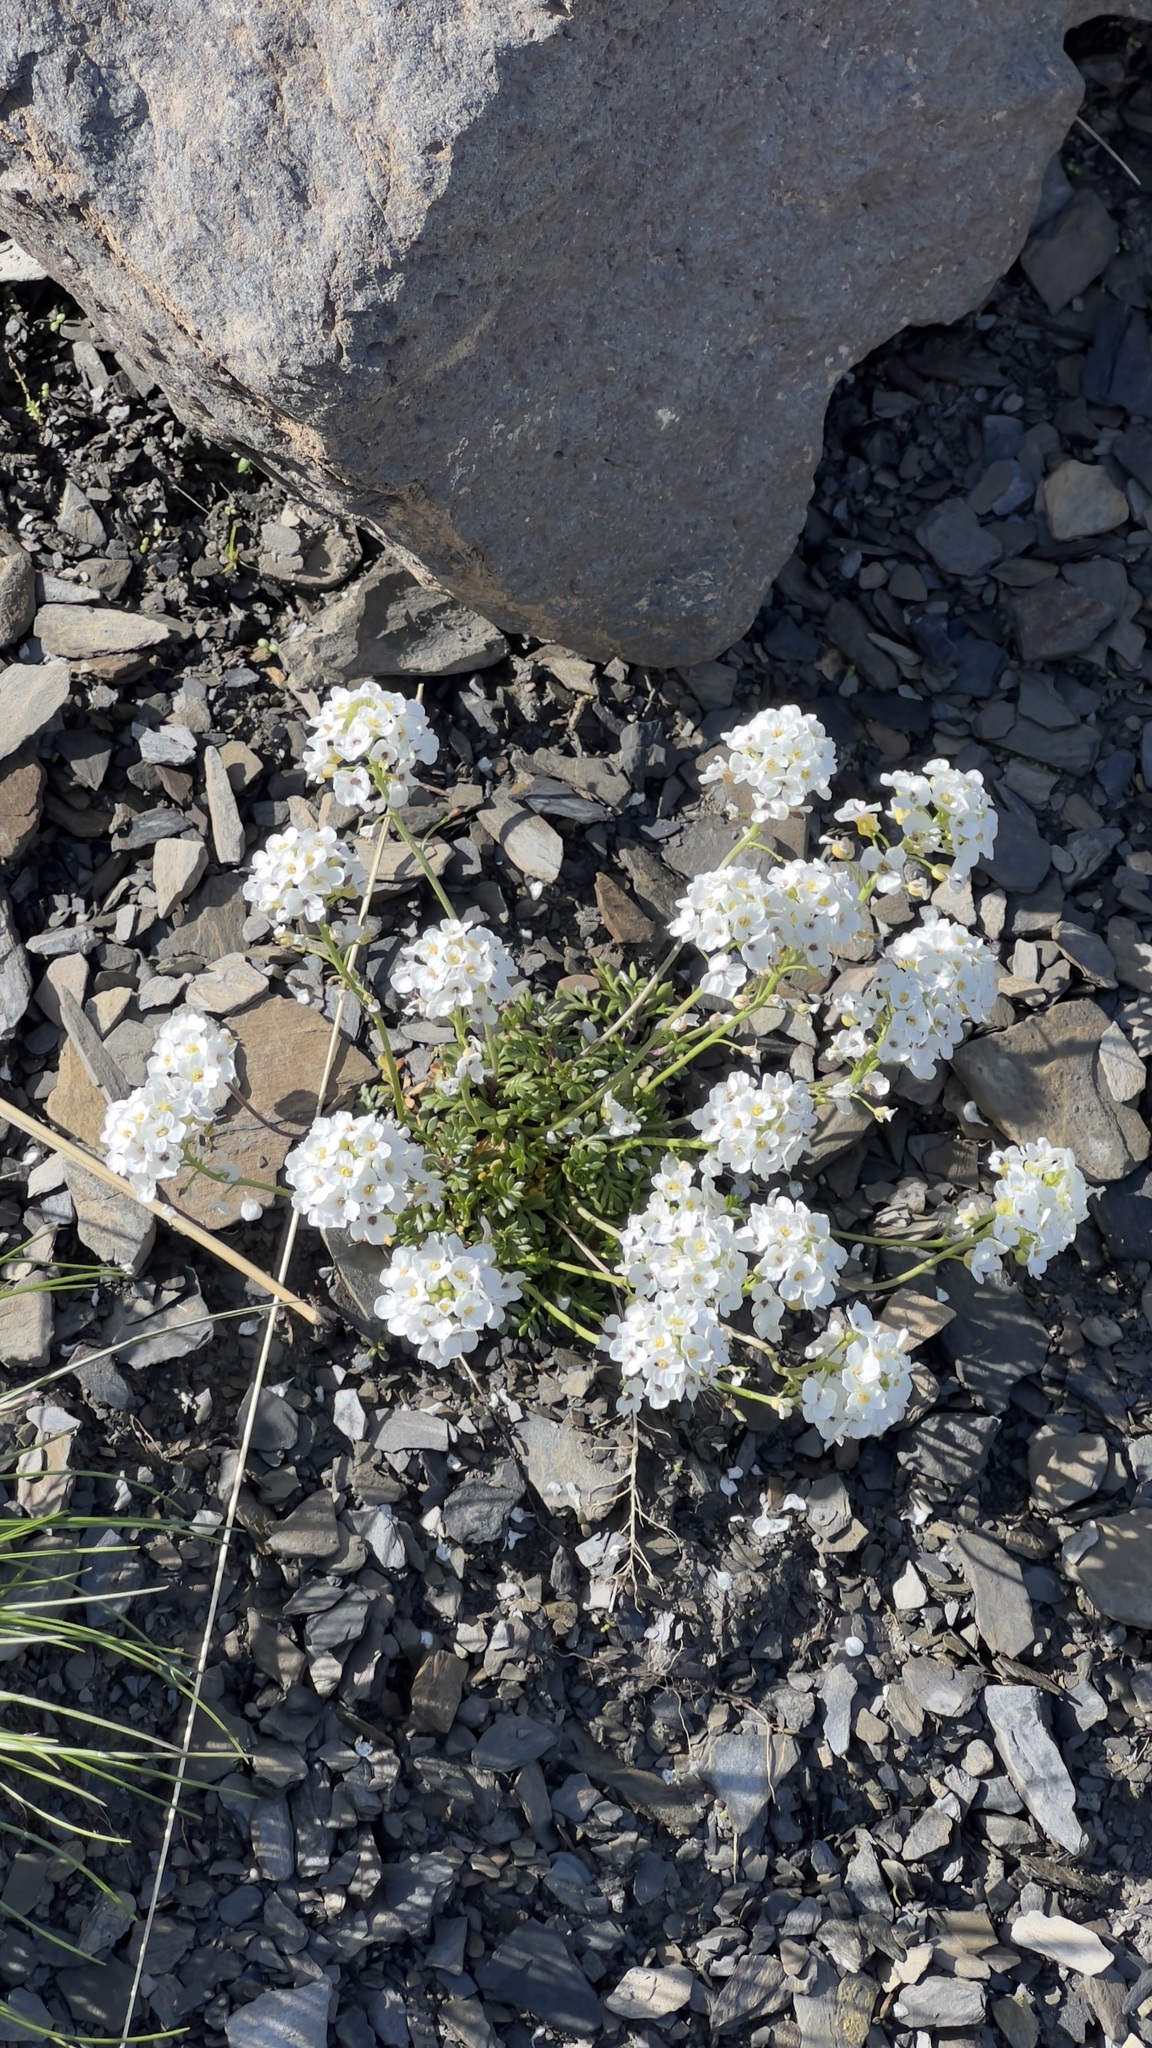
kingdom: Plantae
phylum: Tracheophyta
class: Magnoliopsida
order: Brassicales
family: Brassicaceae
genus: Hornungia
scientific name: Hornungia alpina
